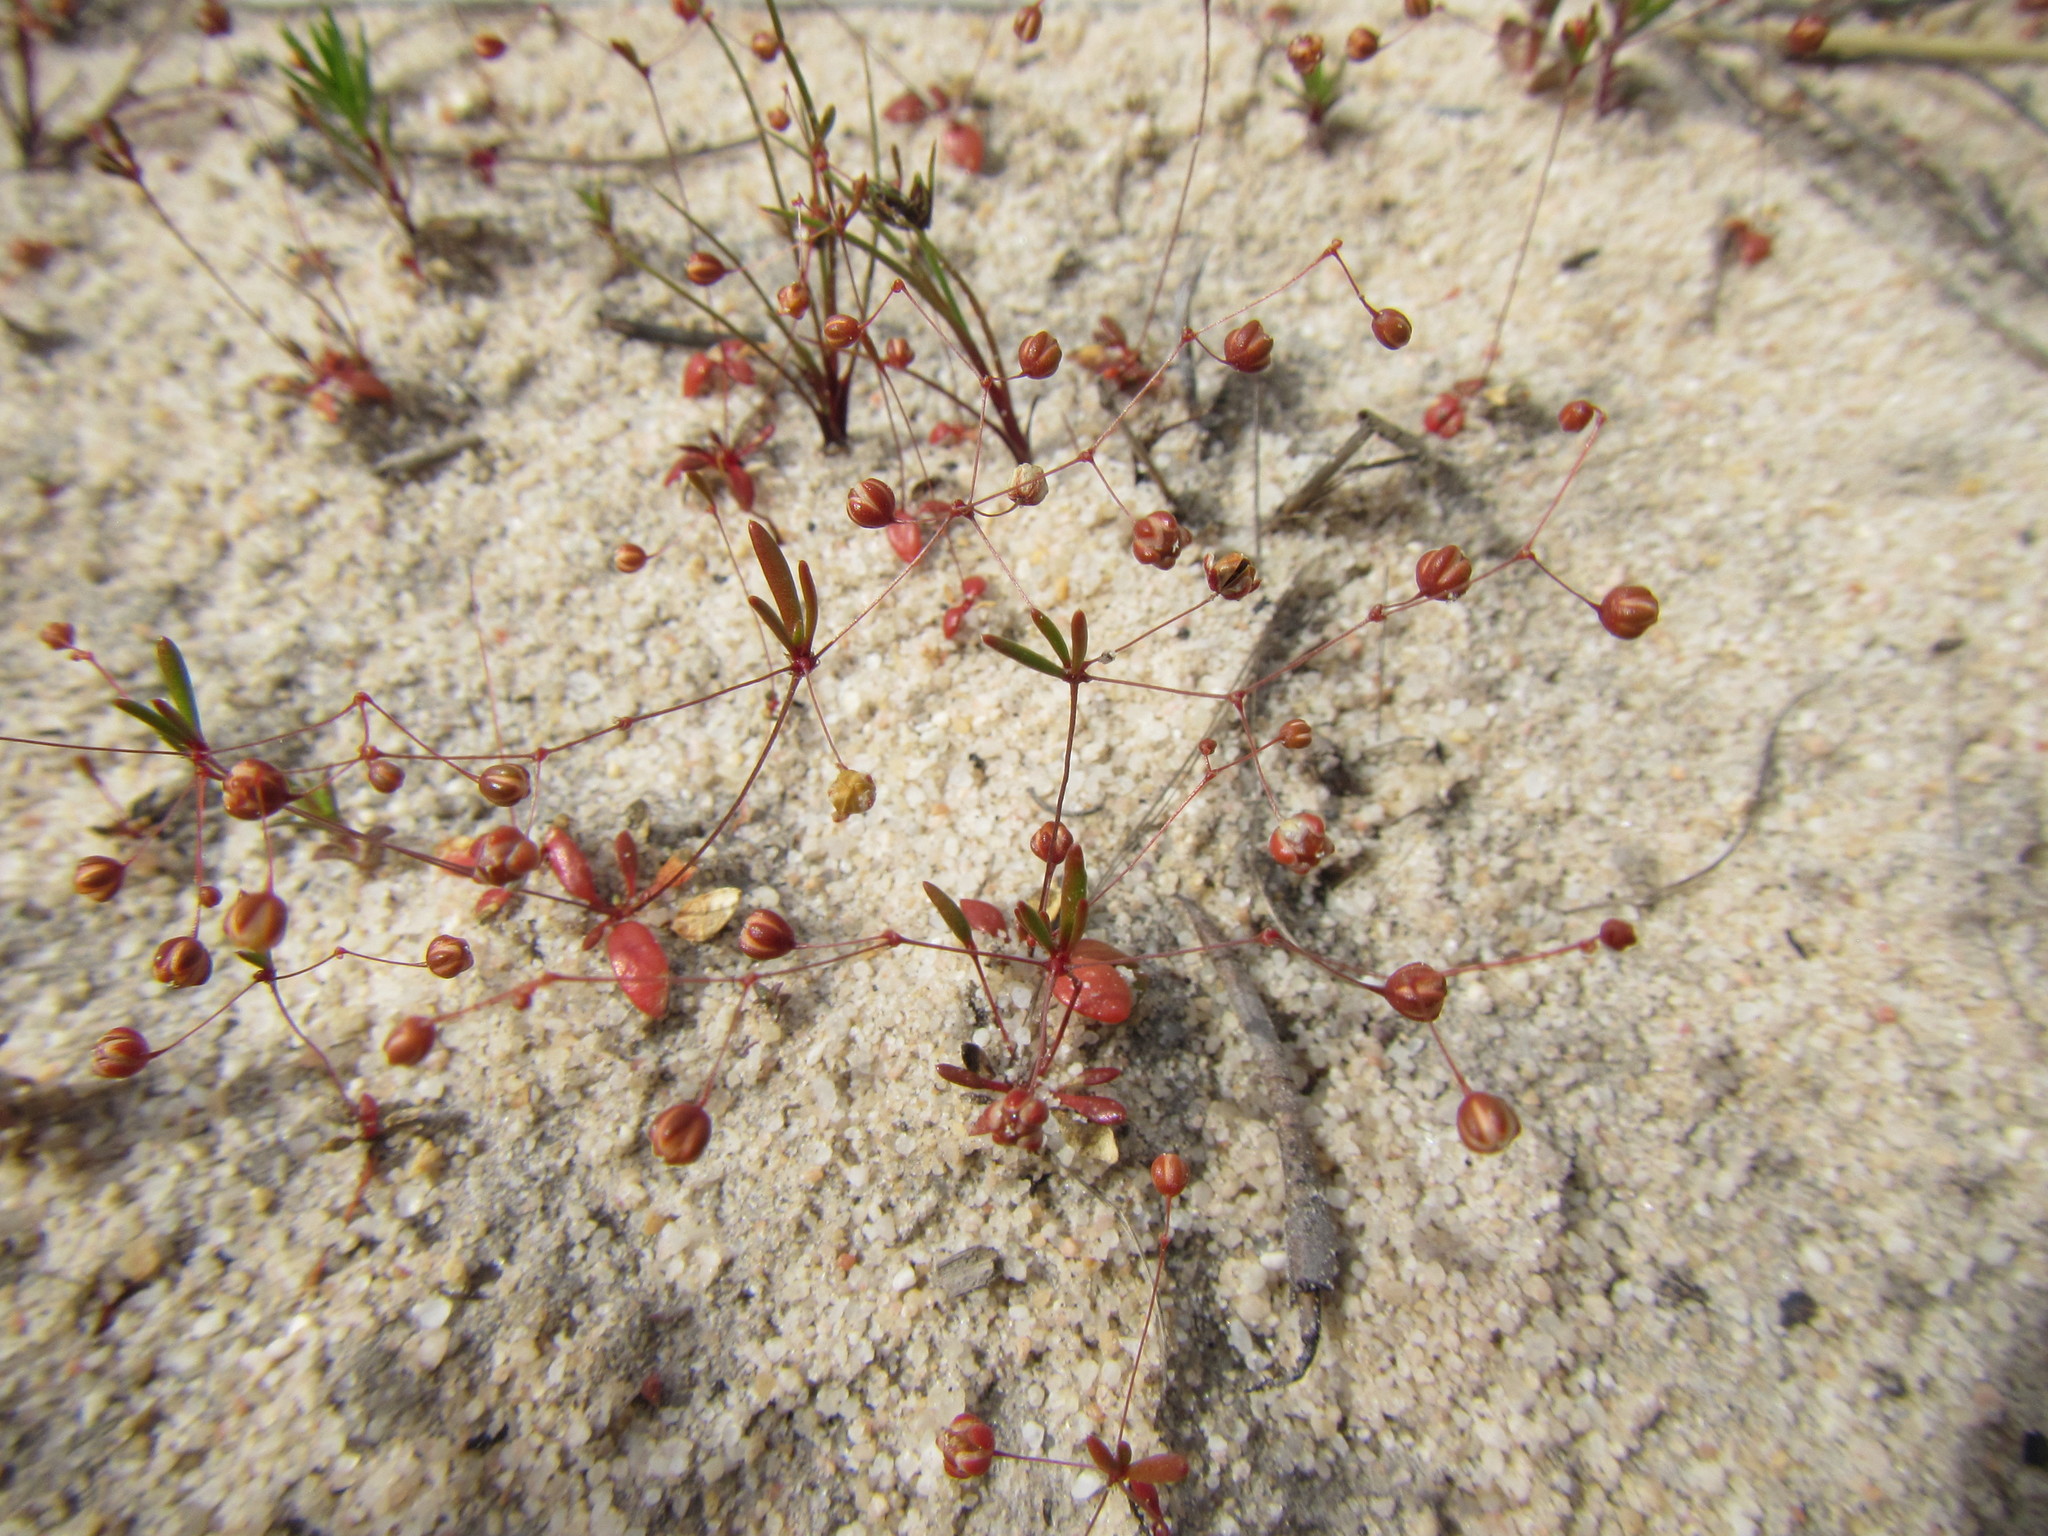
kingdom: Plantae
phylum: Tracheophyta
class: Magnoliopsida
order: Caryophyllales
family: Molluginaceae
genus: Hypertelis
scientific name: Hypertelis pusilla
